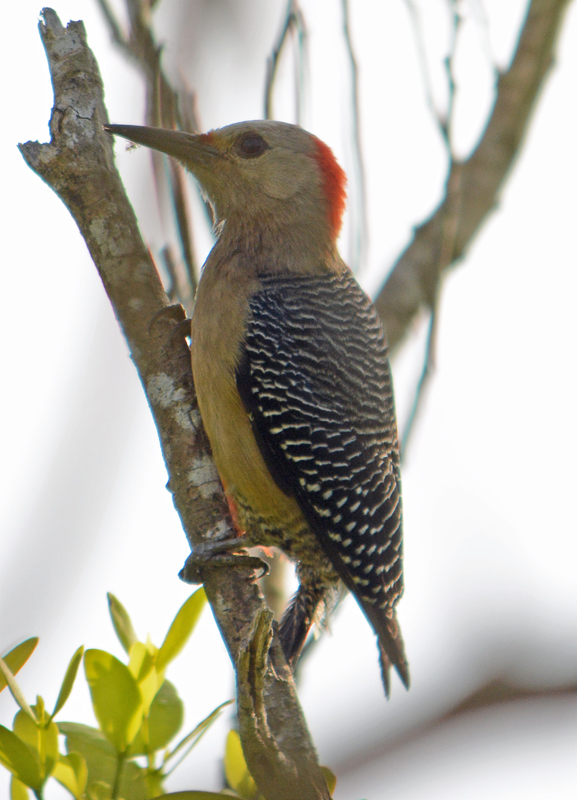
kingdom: Animalia
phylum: Chordata
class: Aves
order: Piciformes
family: Picidae
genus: Melanerpes
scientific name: Melanerpes aurifrons
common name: Golden-fronted woodpecker
